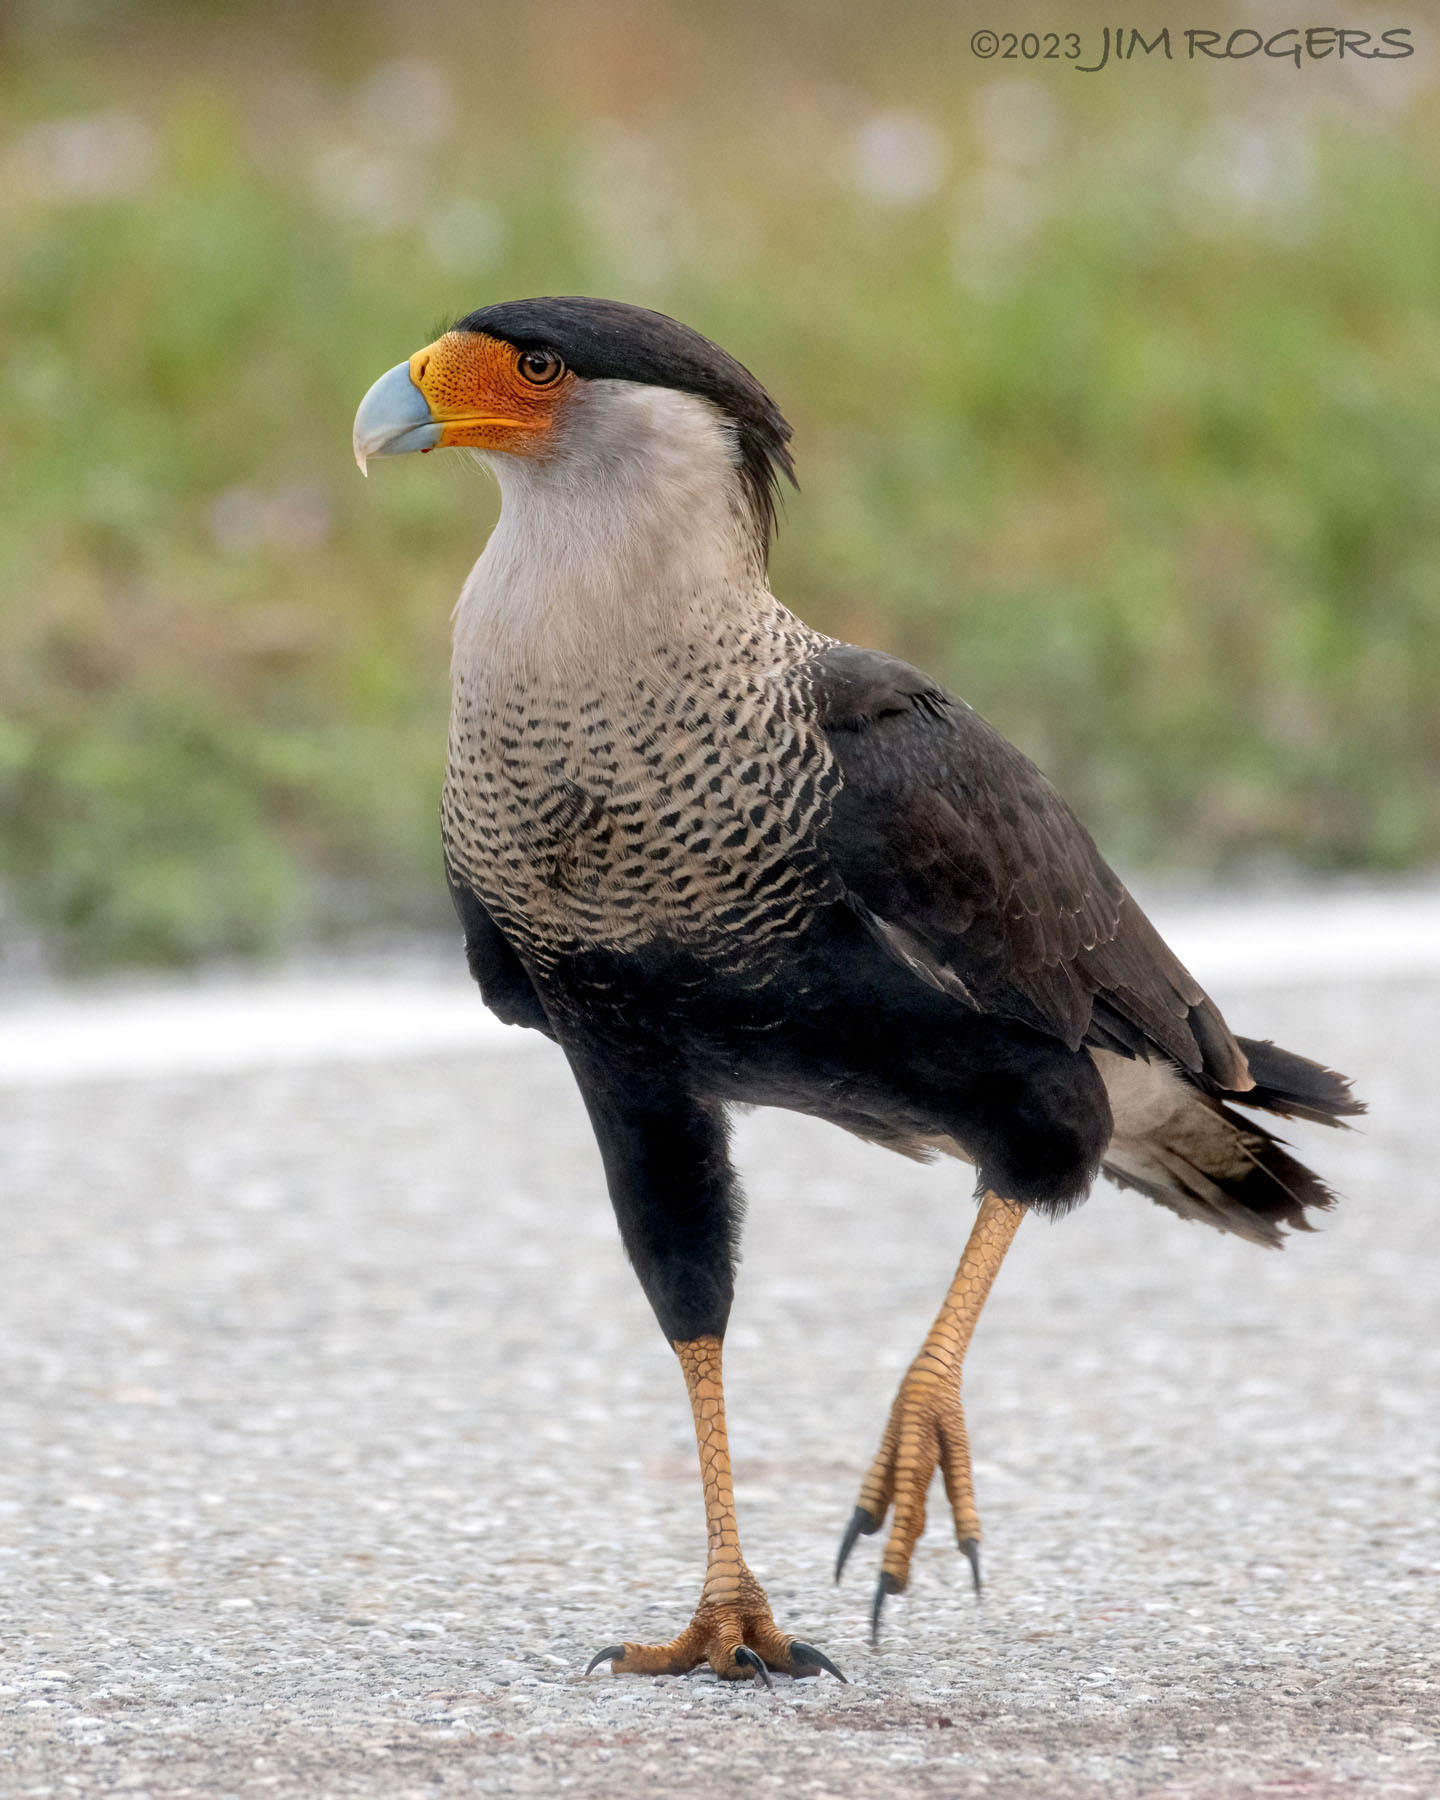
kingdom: Animalia
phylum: Chordata
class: Aves
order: Falconiformes
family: Falconidae
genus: Caracara
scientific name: Caracara plancus
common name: Southern caracara
